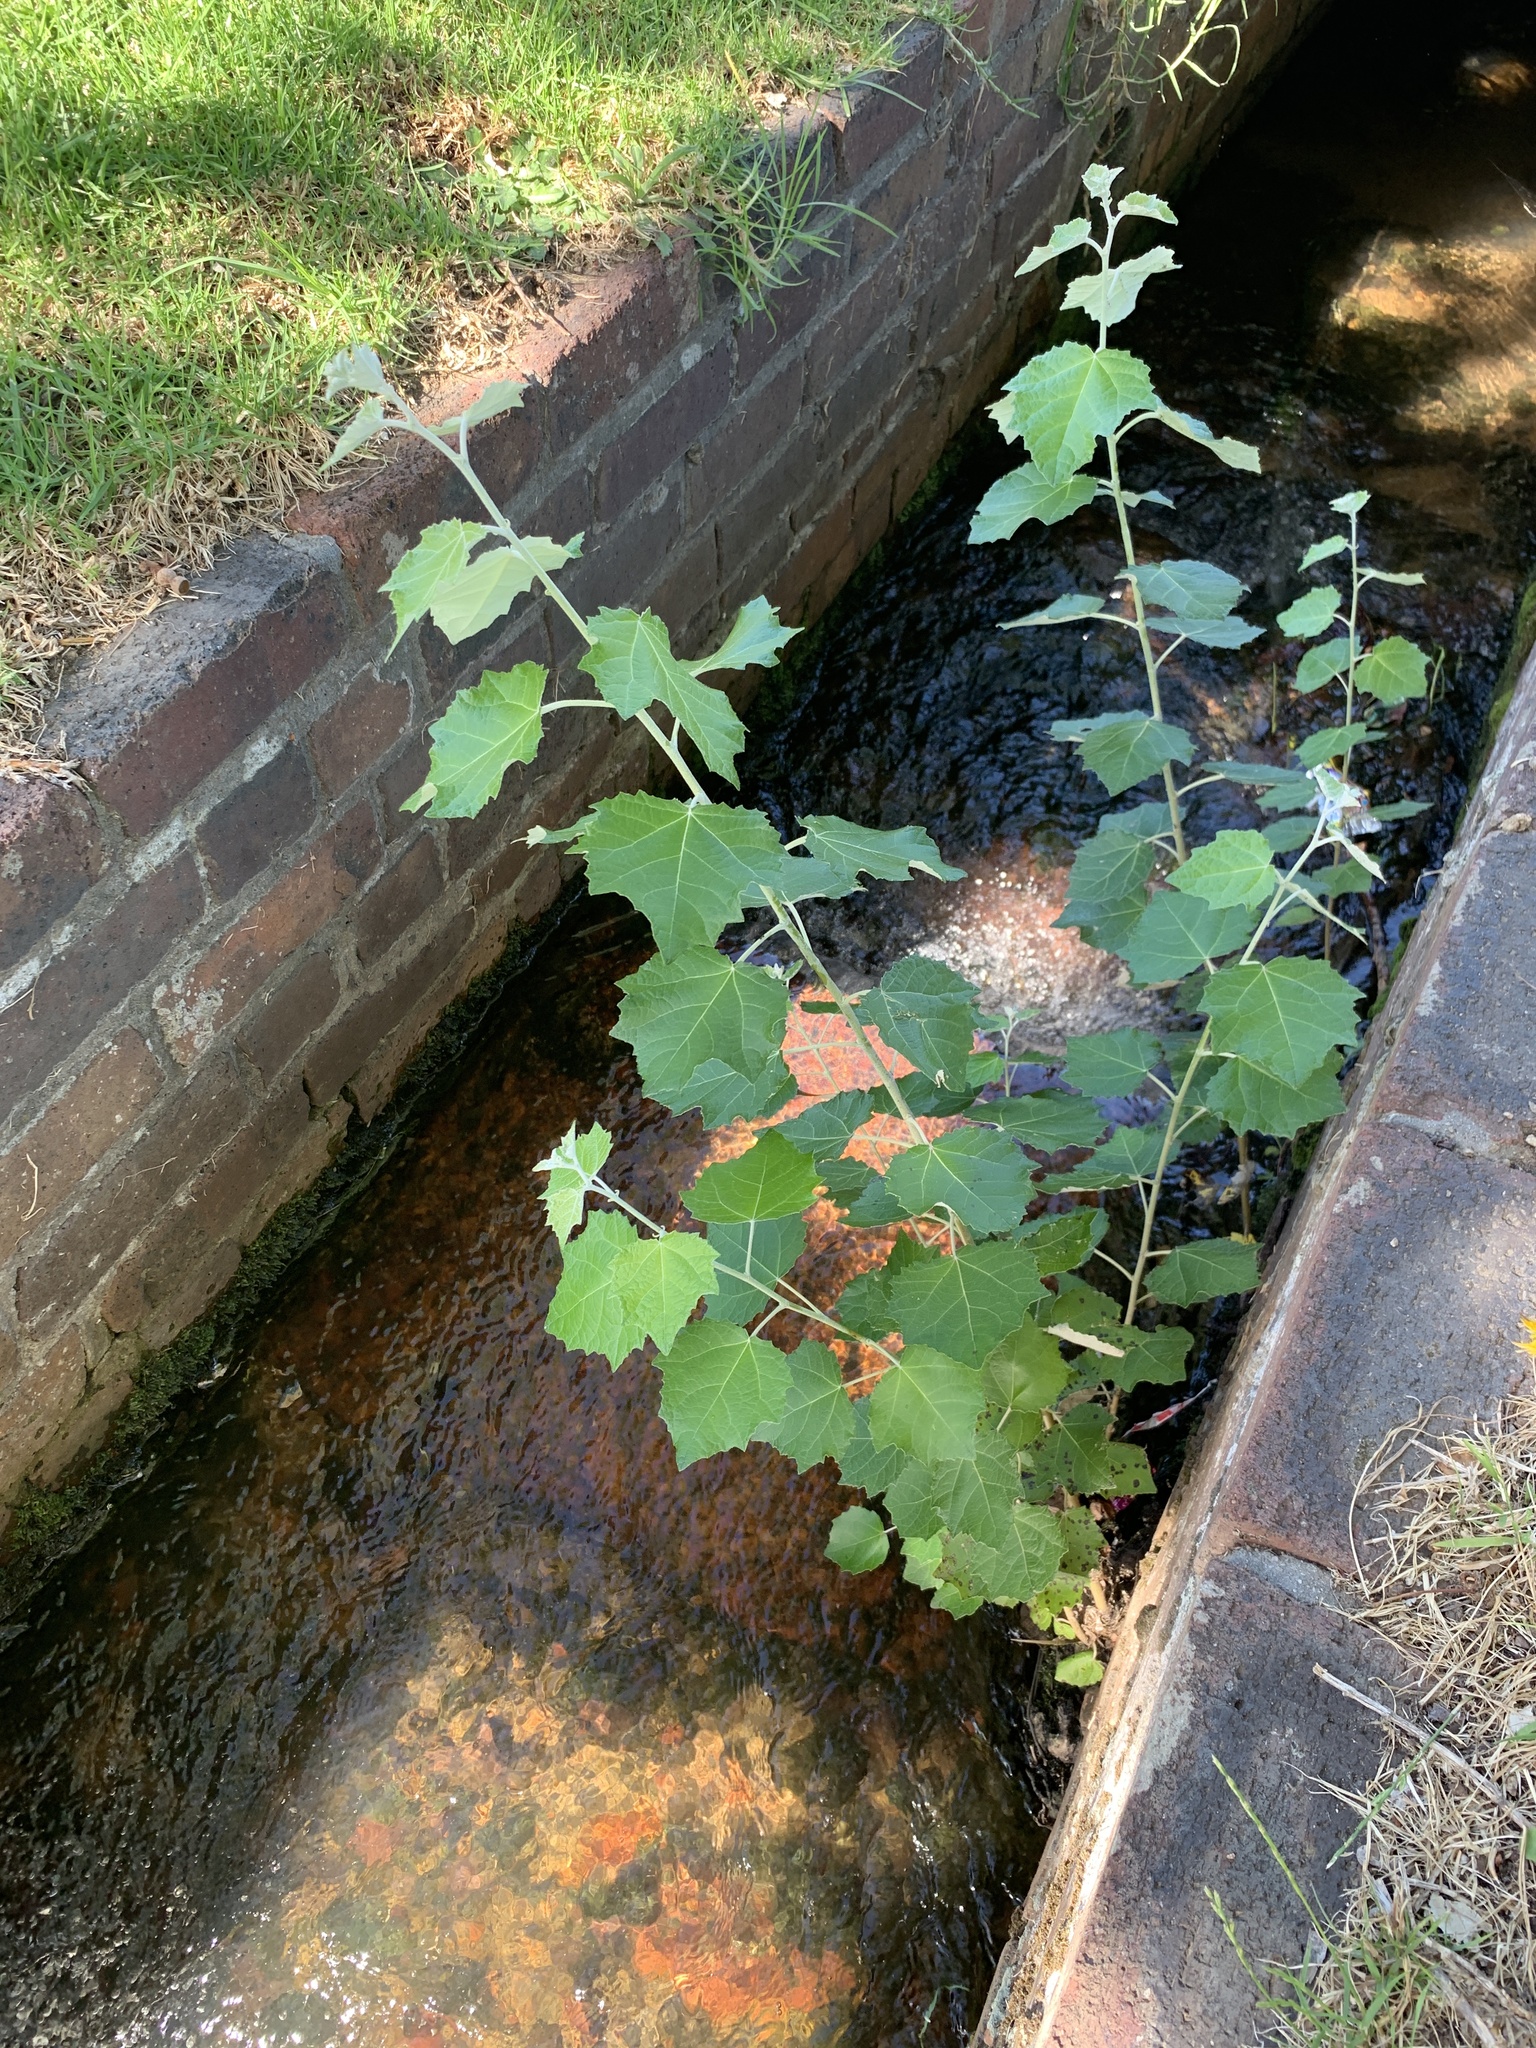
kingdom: Plantae
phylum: Tracheophyta
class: Magnoliopsida
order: Malpighiales
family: Salicaceae
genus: Populus
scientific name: Populus canescens
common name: Gray poplar
